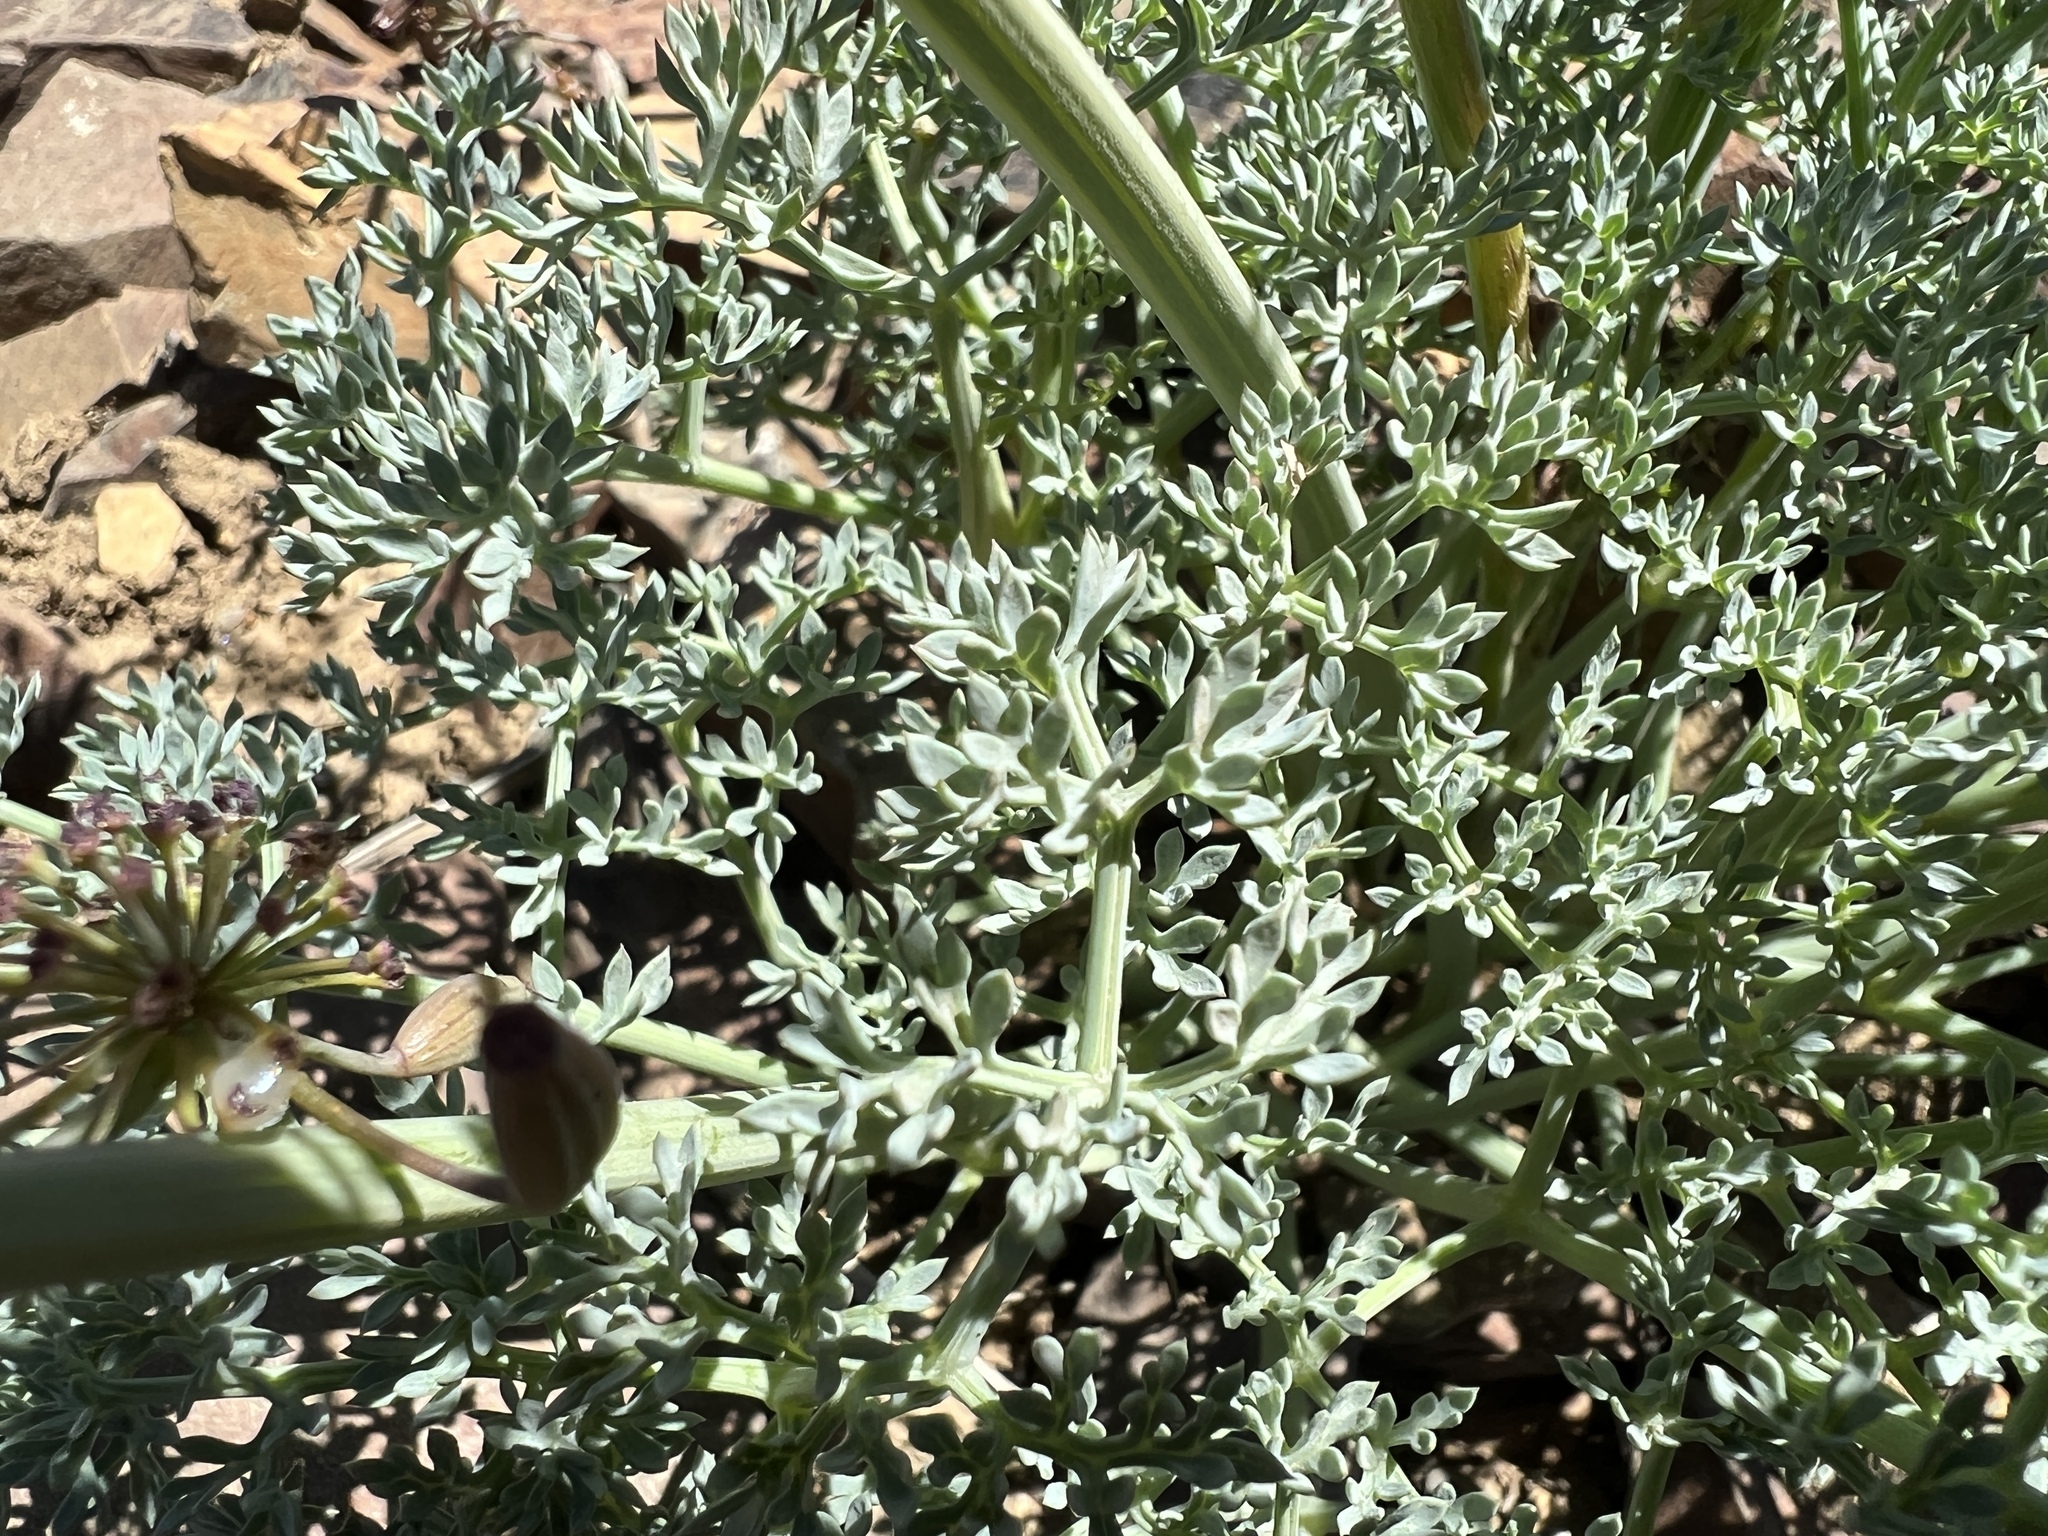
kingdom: Plantae
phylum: Tracheophyta
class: Magnoliopsida
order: Apiales
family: Apiaceae
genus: Lomatium
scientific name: Lomatium cuspidatum
